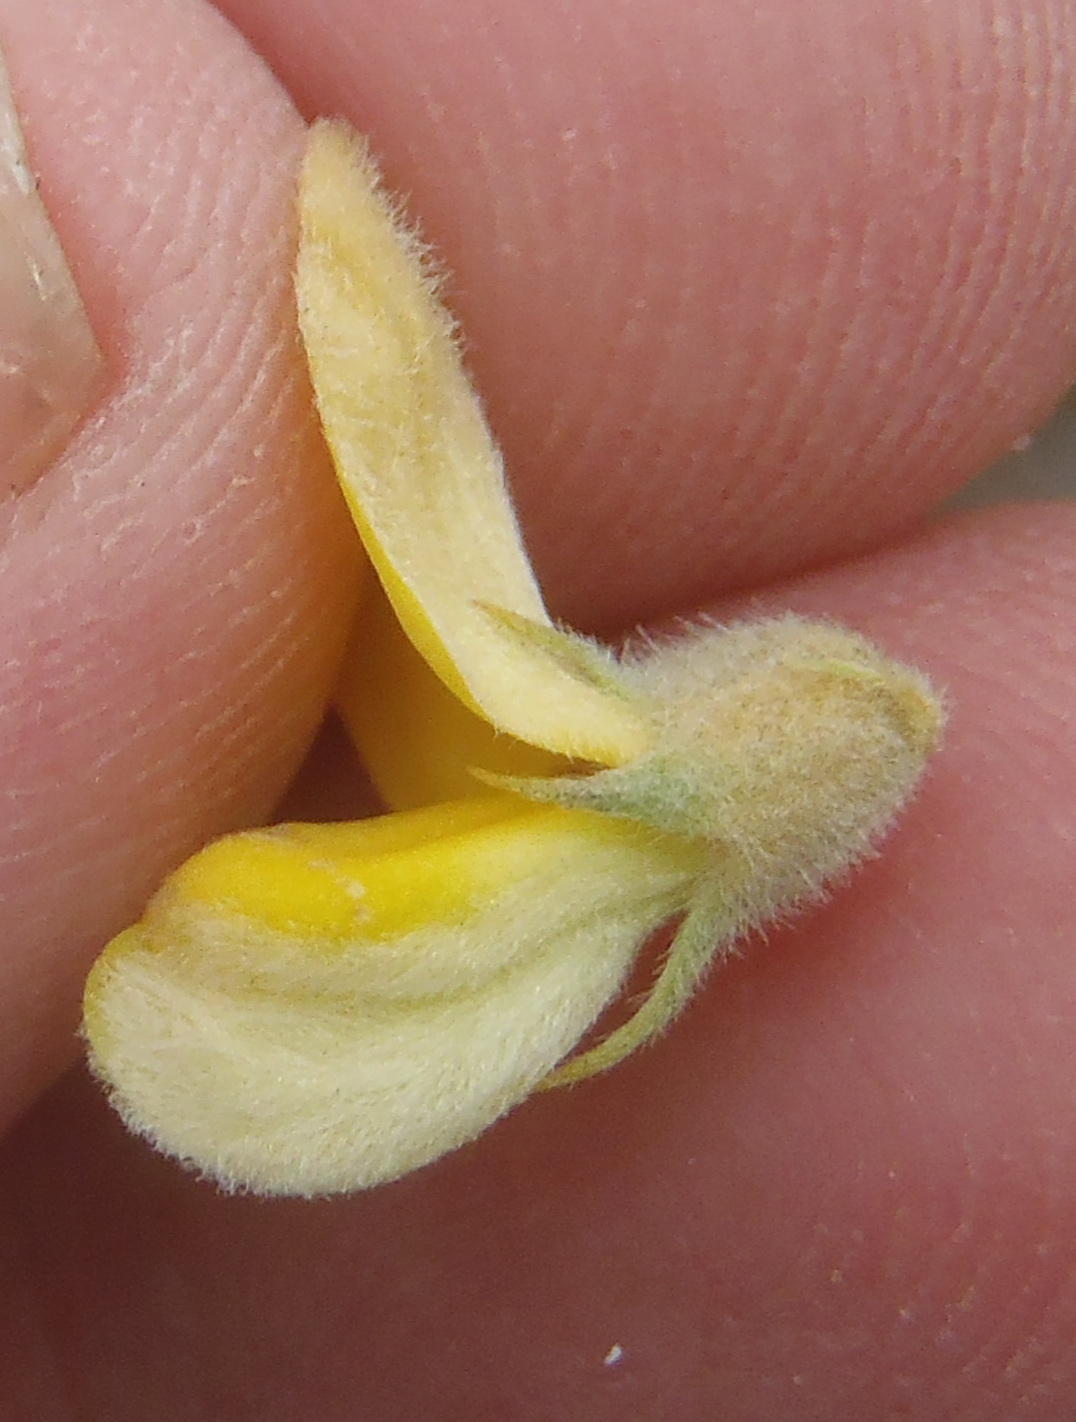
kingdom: Plantae
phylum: Tracheophyta
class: Magnoliopsida
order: Fabales
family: Fabaceae
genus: Aspalathus
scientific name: Aspalathus kougaensis
